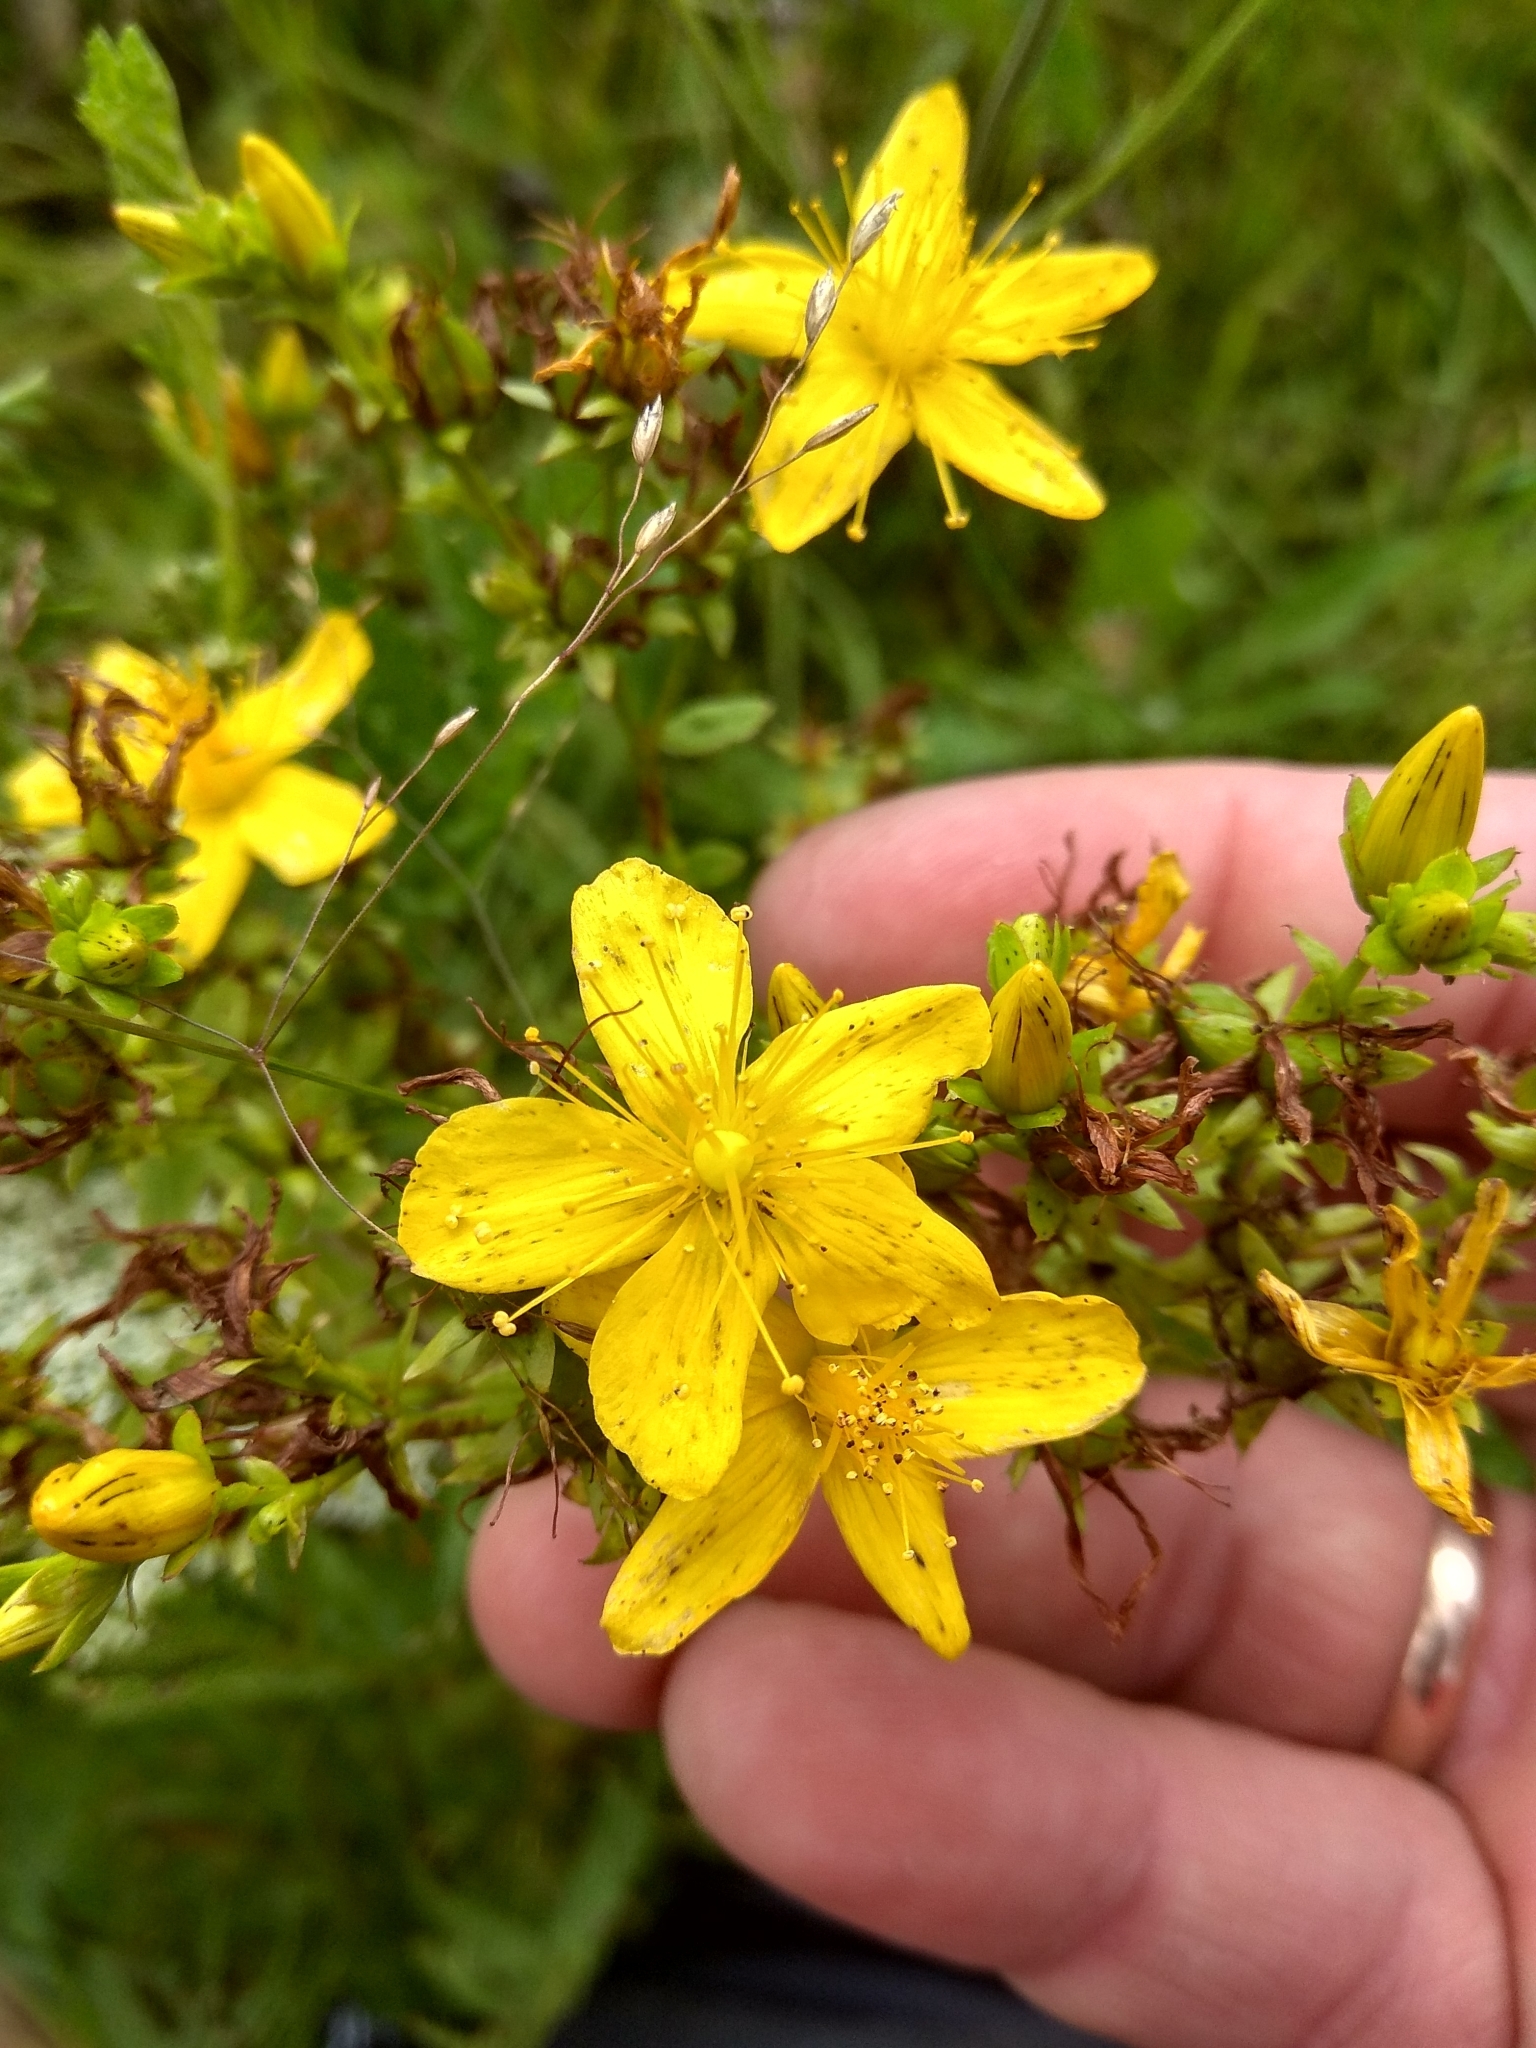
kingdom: Plantae
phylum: Tracheophyta
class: Magnoliopsida
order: Malpighiales
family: Hypericaceae
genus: Hypericum
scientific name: Hypericum perforatum
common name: Common st. johnswort
